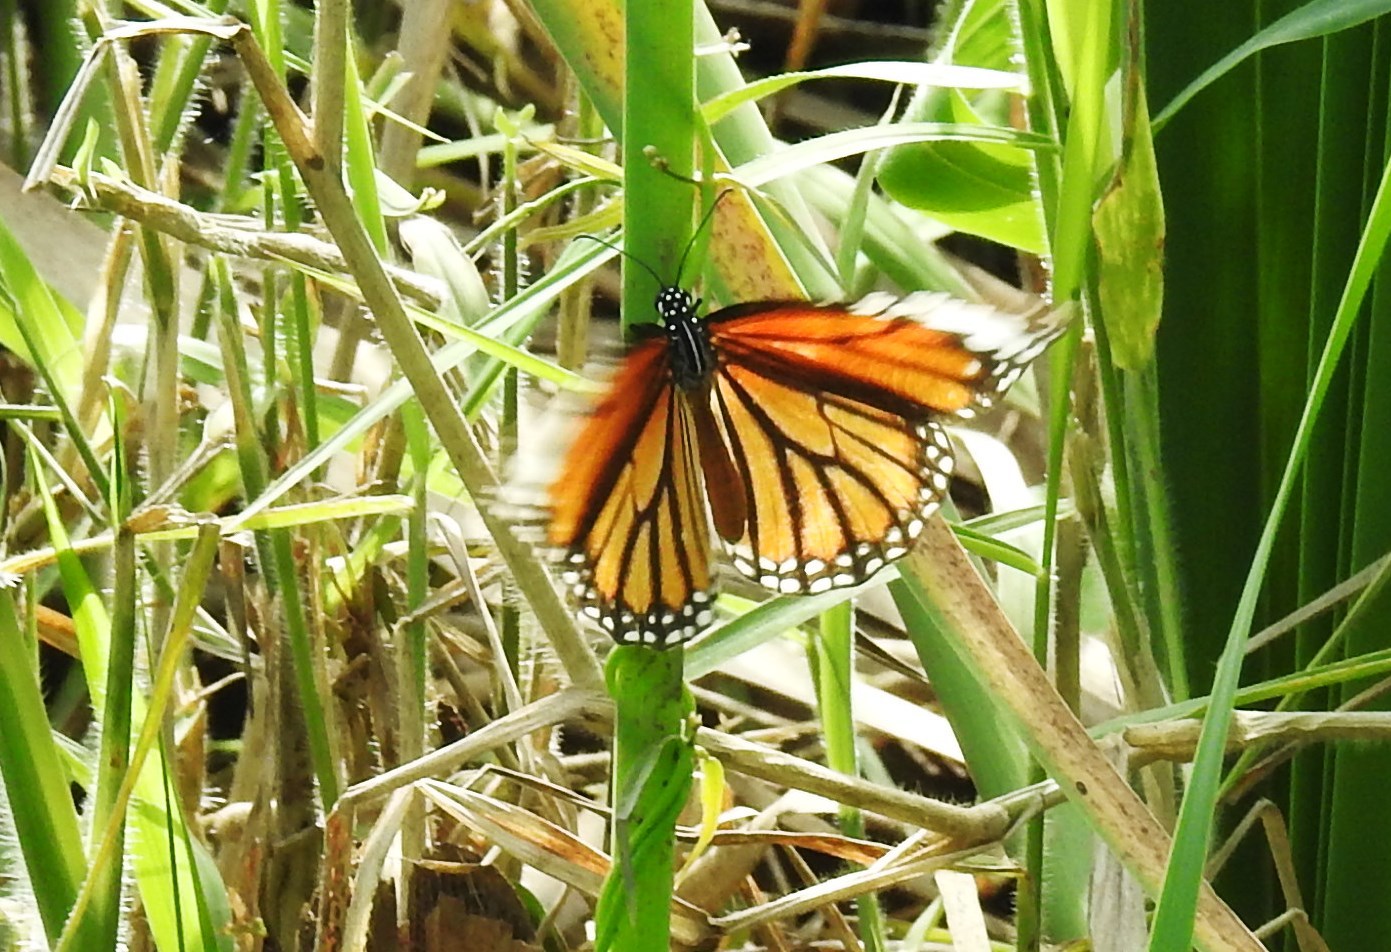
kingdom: Animalia
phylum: Arthropoda
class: Insecta
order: Lepidoptera
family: Nymphalidae
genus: Danaus
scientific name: Danaus genutia
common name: Common tiger butterfly
